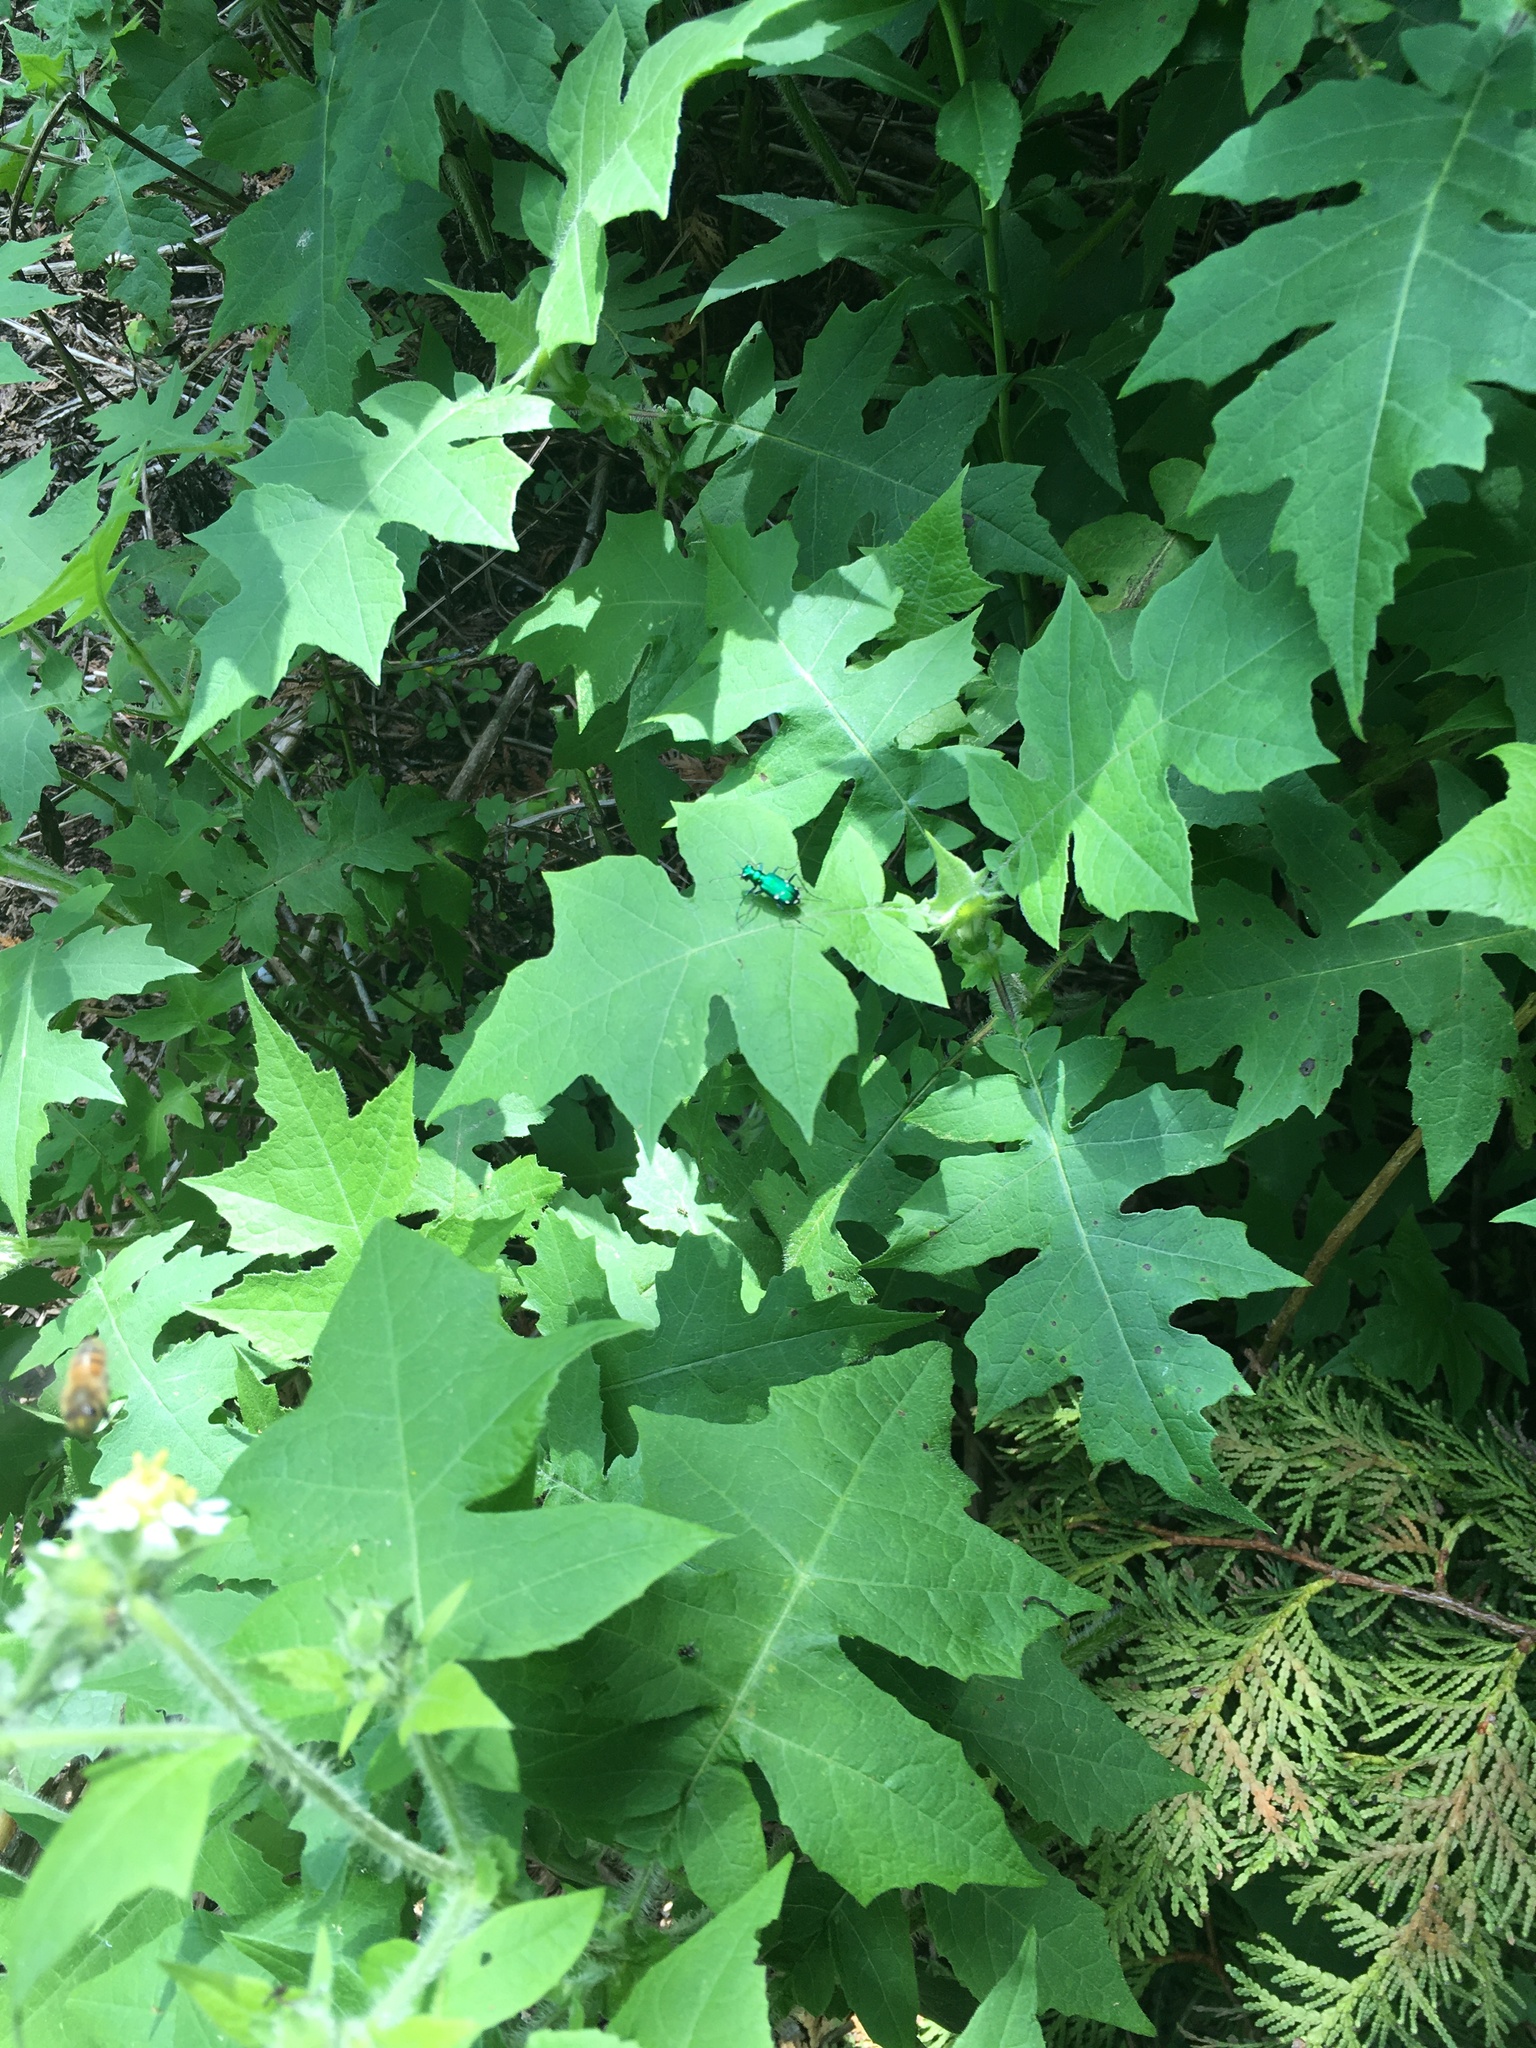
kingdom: Plantae
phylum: Tracheophyta
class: Magnoliopsida
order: Asterales
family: Asteraceae
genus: Polymnia
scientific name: Polymnia canadensis
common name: Pale-flowered leafcup
